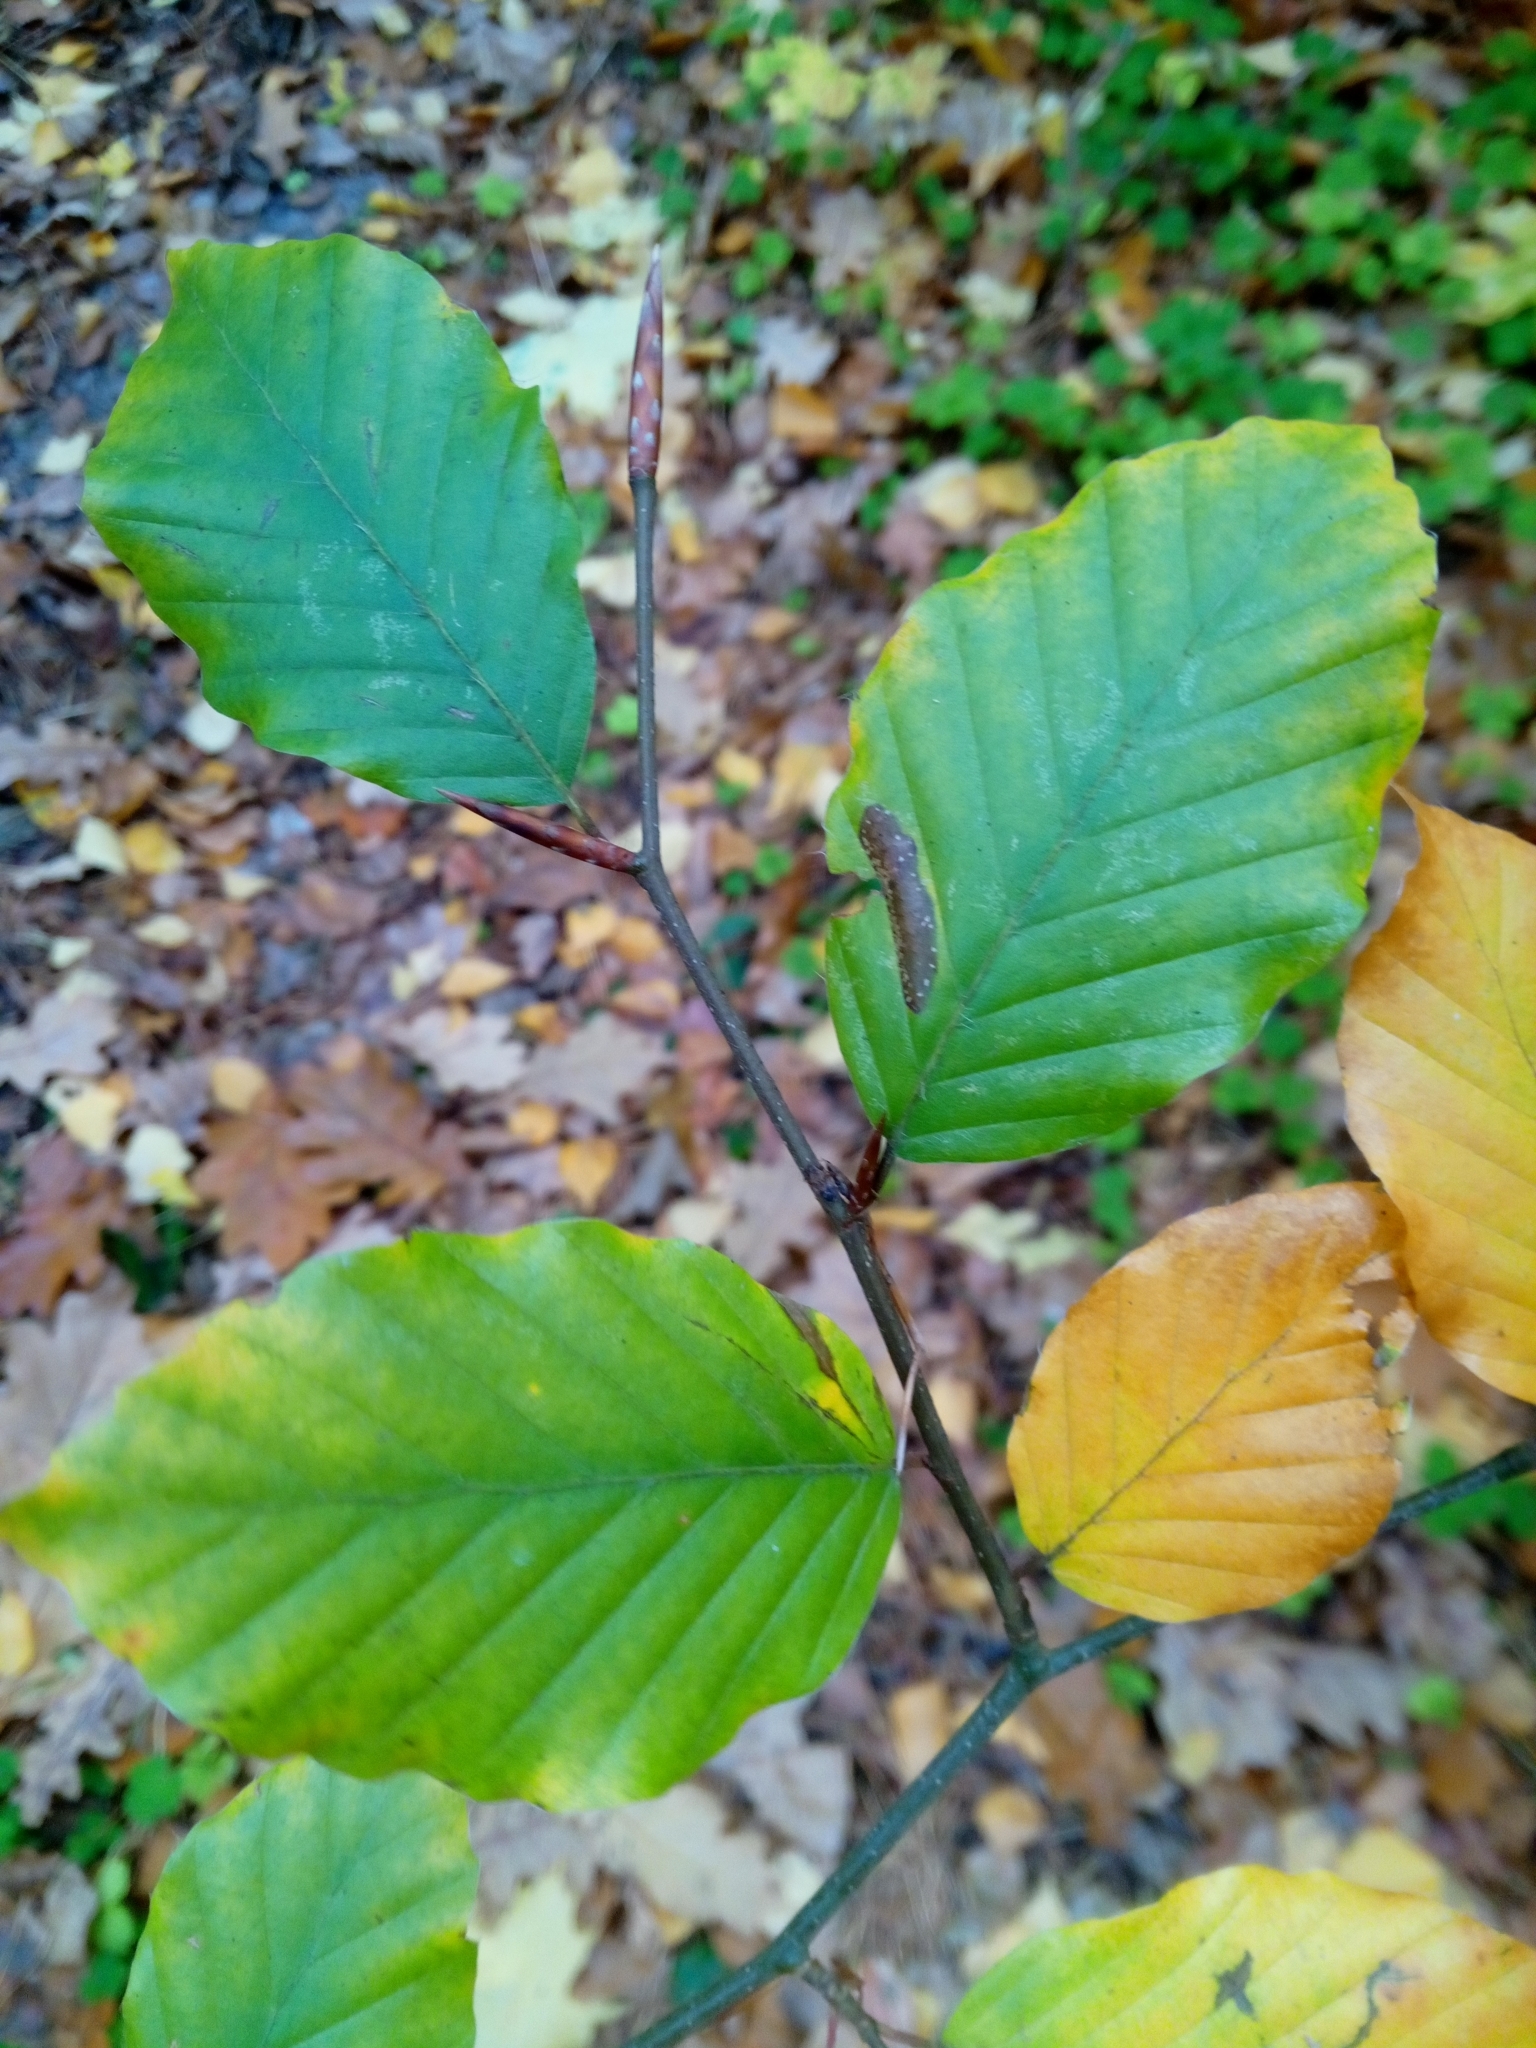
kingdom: Plantae
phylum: Tracheophyta
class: Magnoliopsida
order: Fagales
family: Fagaceae
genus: Fagus
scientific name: Fagus sylvatica
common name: Beech
